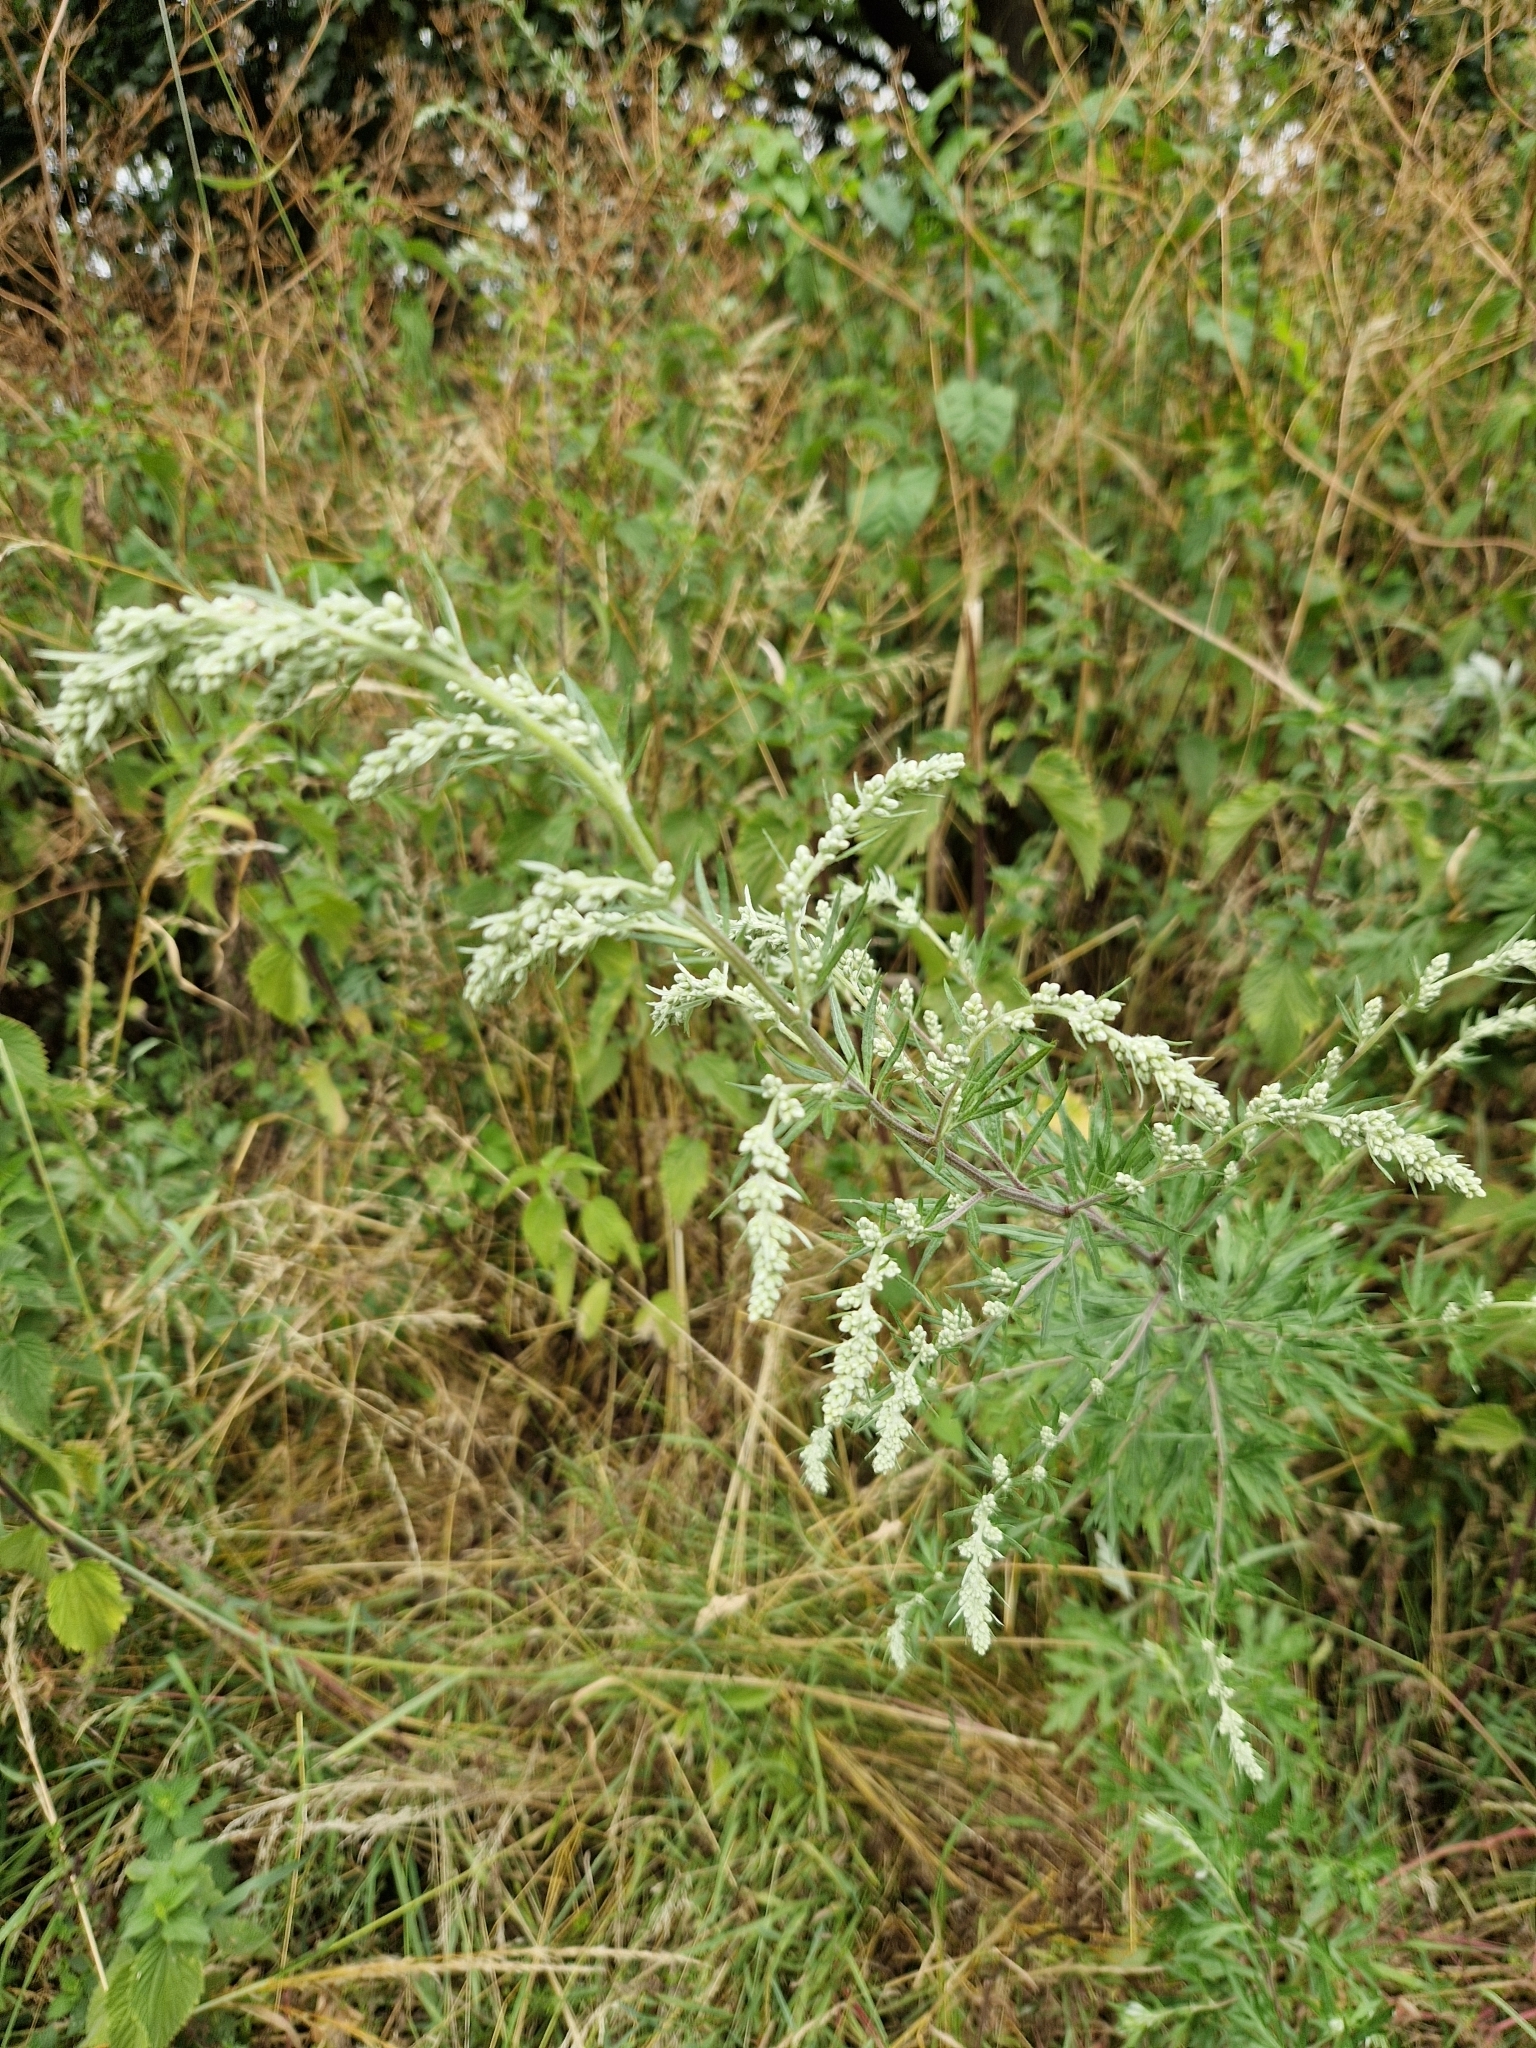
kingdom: Plantae
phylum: Tracheophyta
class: Magnoliopsida
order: Asterales
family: Asteraceae
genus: Artemisia
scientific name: Artemisia vulgaris
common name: Mugwort
